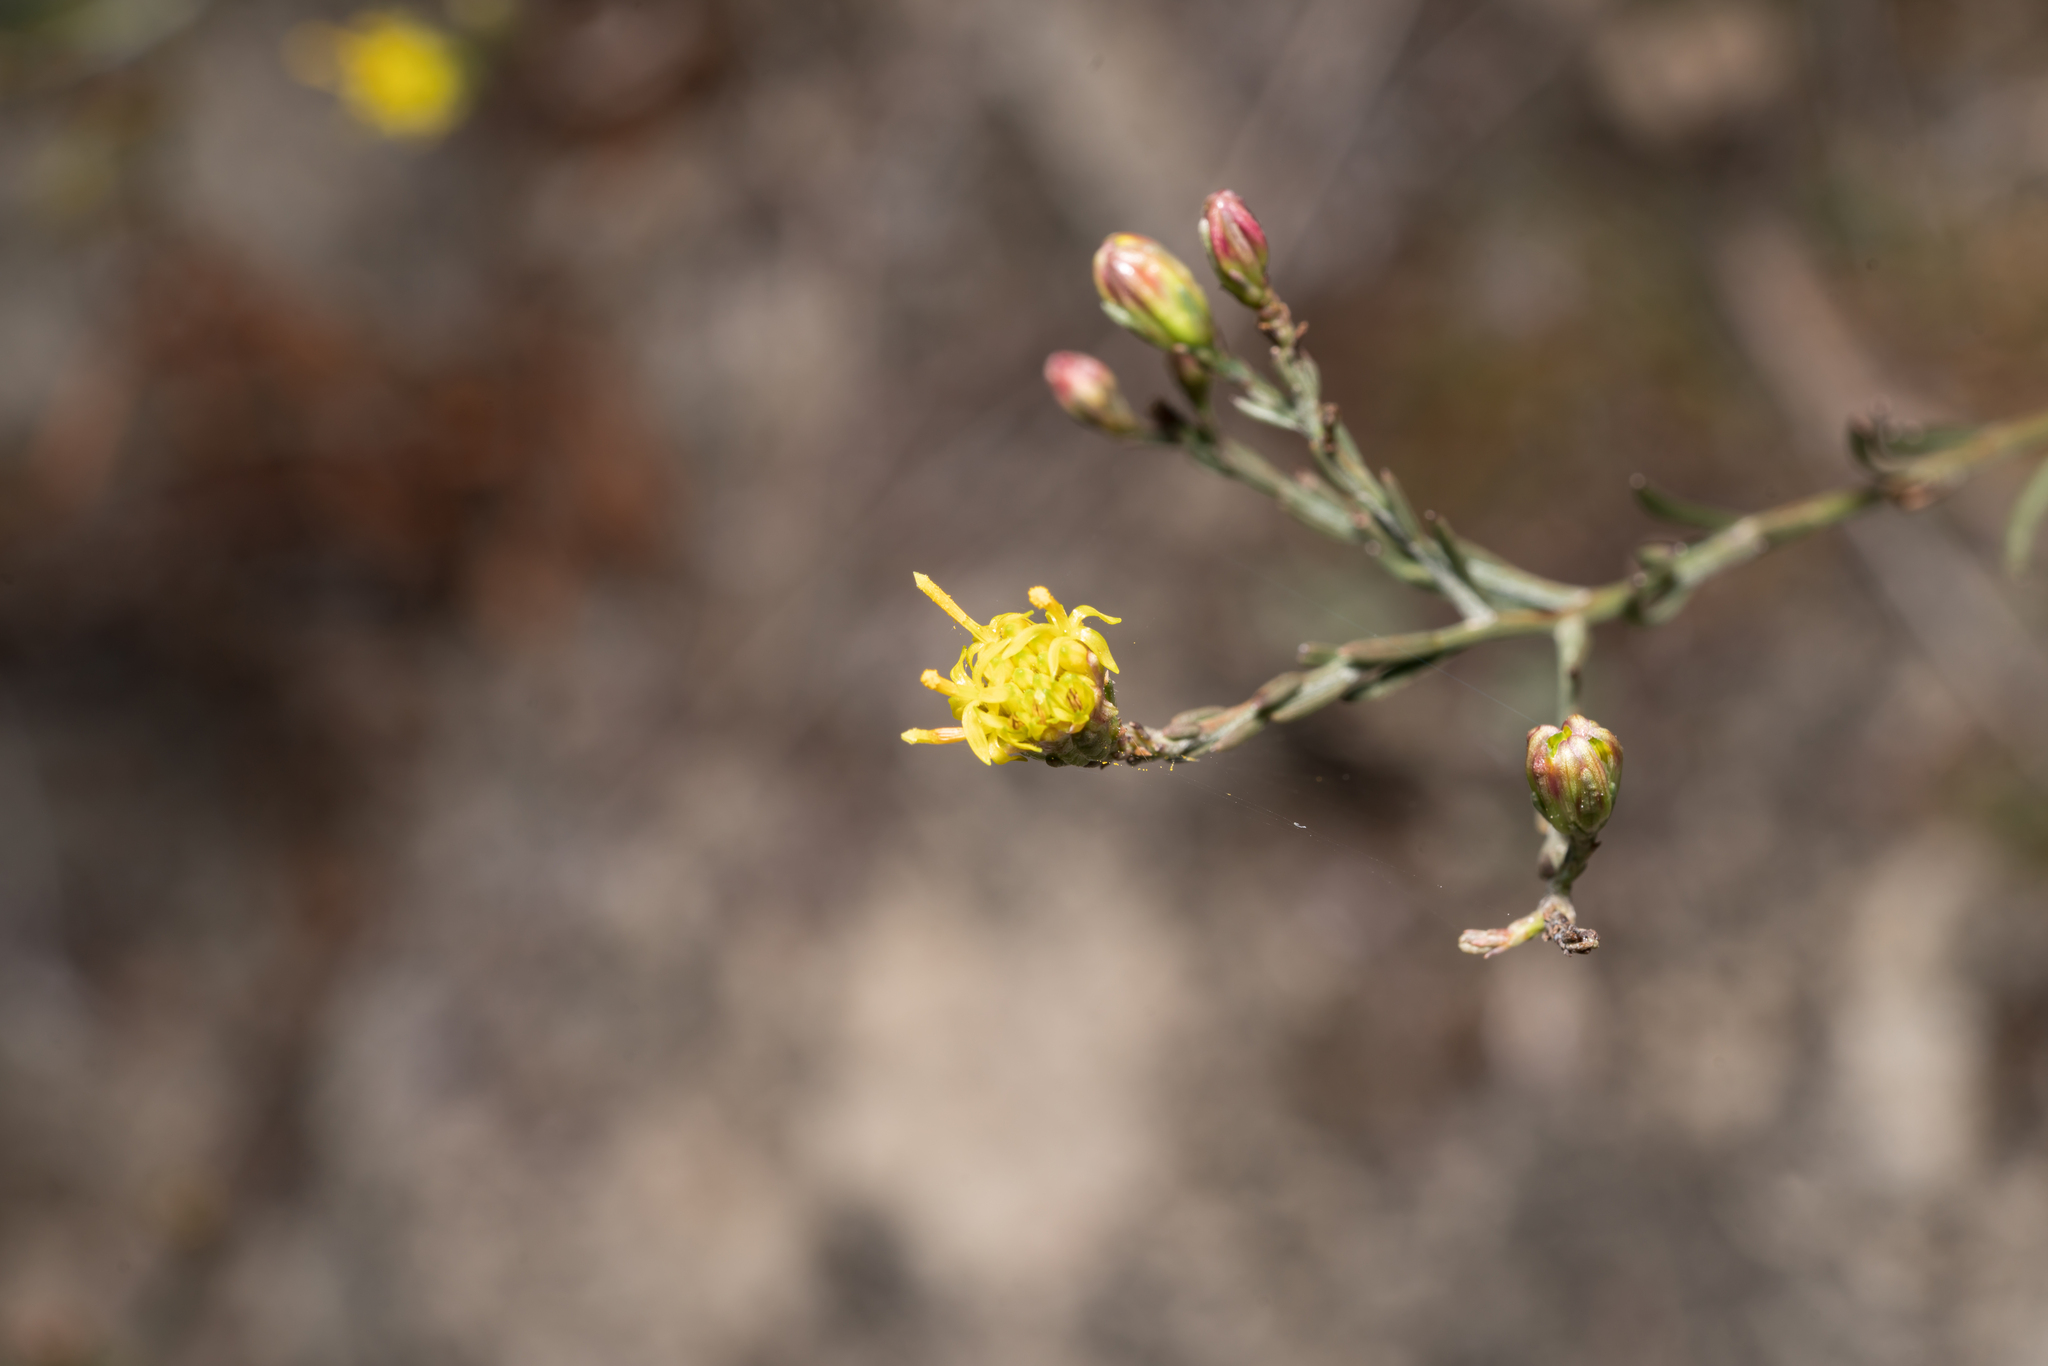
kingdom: Plantae
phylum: Tracheophyta
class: Magnoliopsida
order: Asterales
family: Asteraceae
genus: Galatella
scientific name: Galatella cretica
